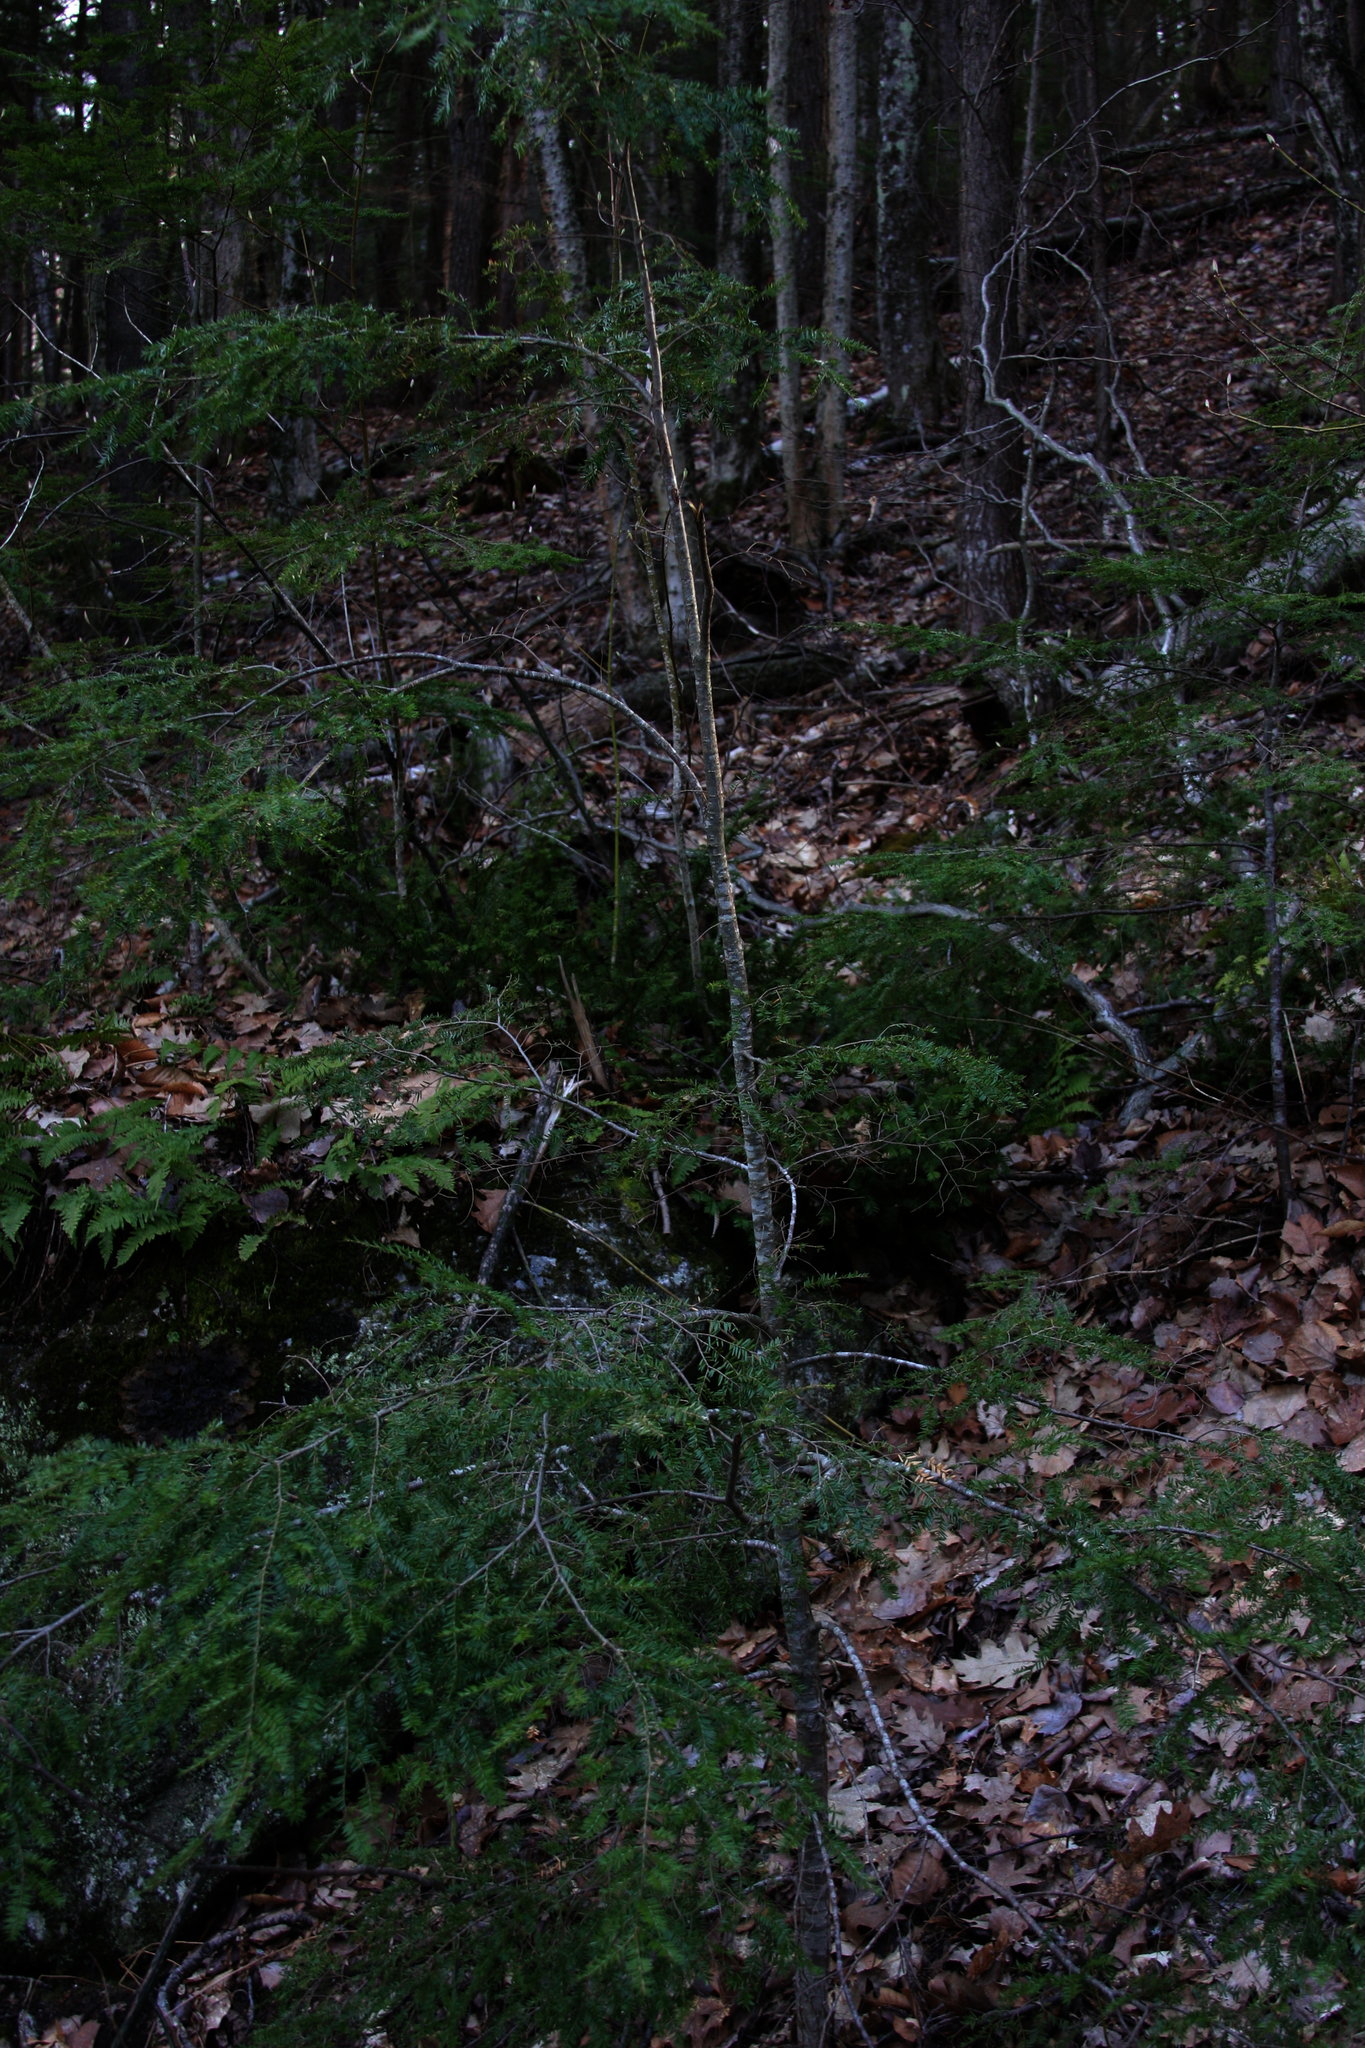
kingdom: Plantae
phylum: Tracheophyta
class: Pinopsida
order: Pinales
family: Pinaceae
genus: Tsuga
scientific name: Tsuga canadensis
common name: Eastern hemlock
